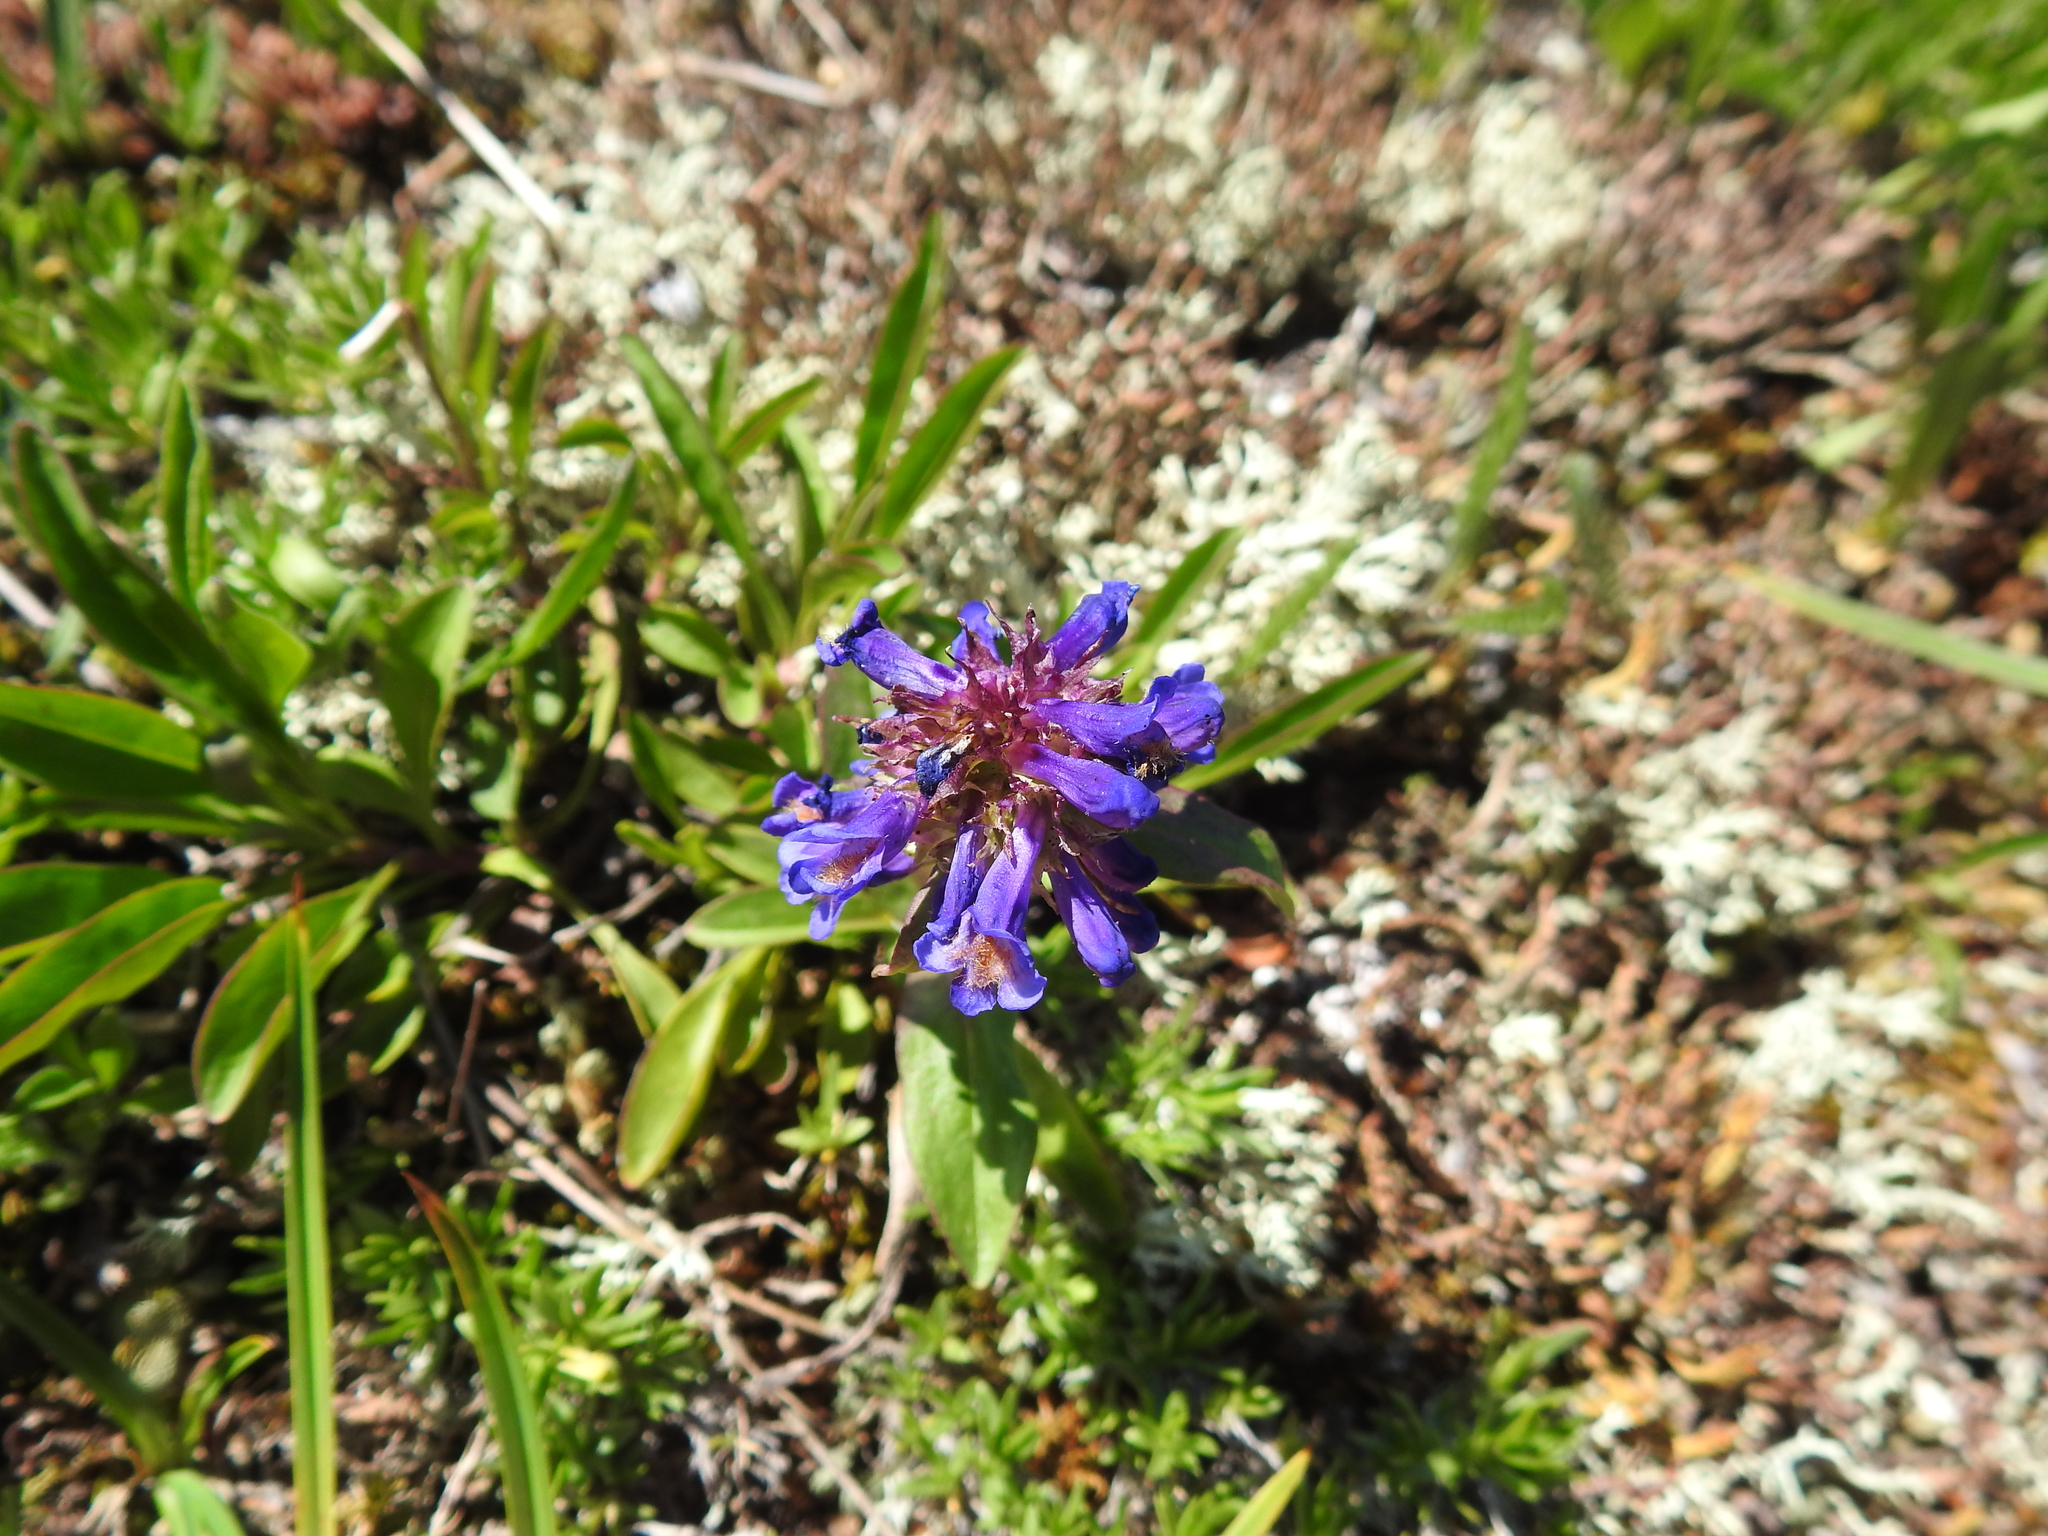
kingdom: Plantae
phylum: Tracheophyta
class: Magnoliopsida
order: Lamiales
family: Plantaginaceae
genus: Penstemon
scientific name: Penstemon procerus
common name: Small-flower penstemon
